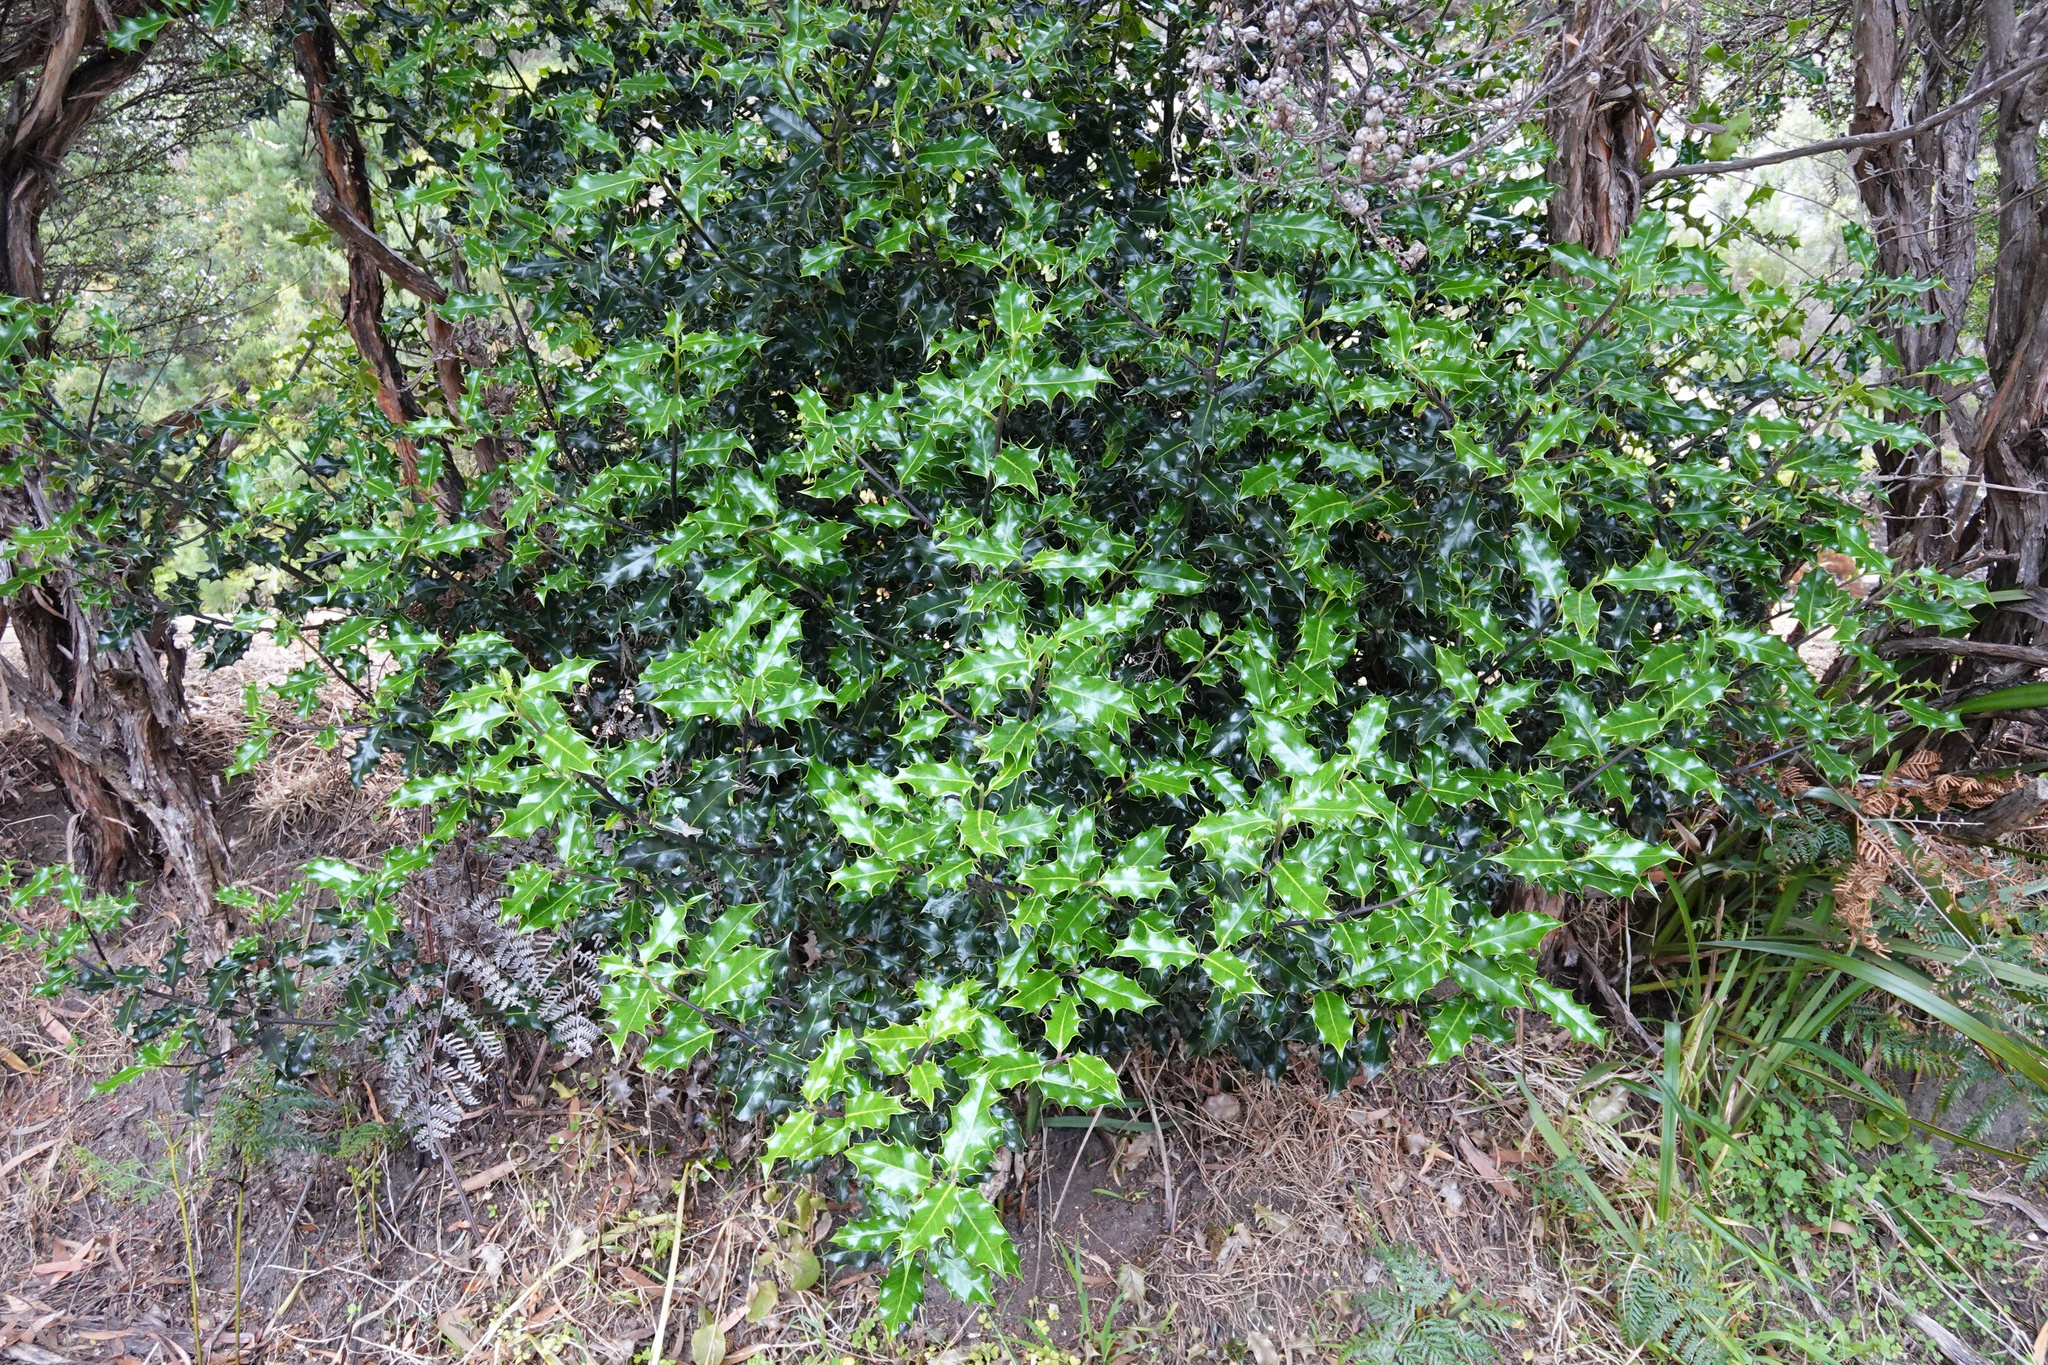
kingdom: Plantae
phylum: Tracheophyta
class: Magnoliopsida
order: Aquifoliales
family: Aquifoliaceae
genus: Ilex
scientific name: Ilex aquifolium
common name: English holly
